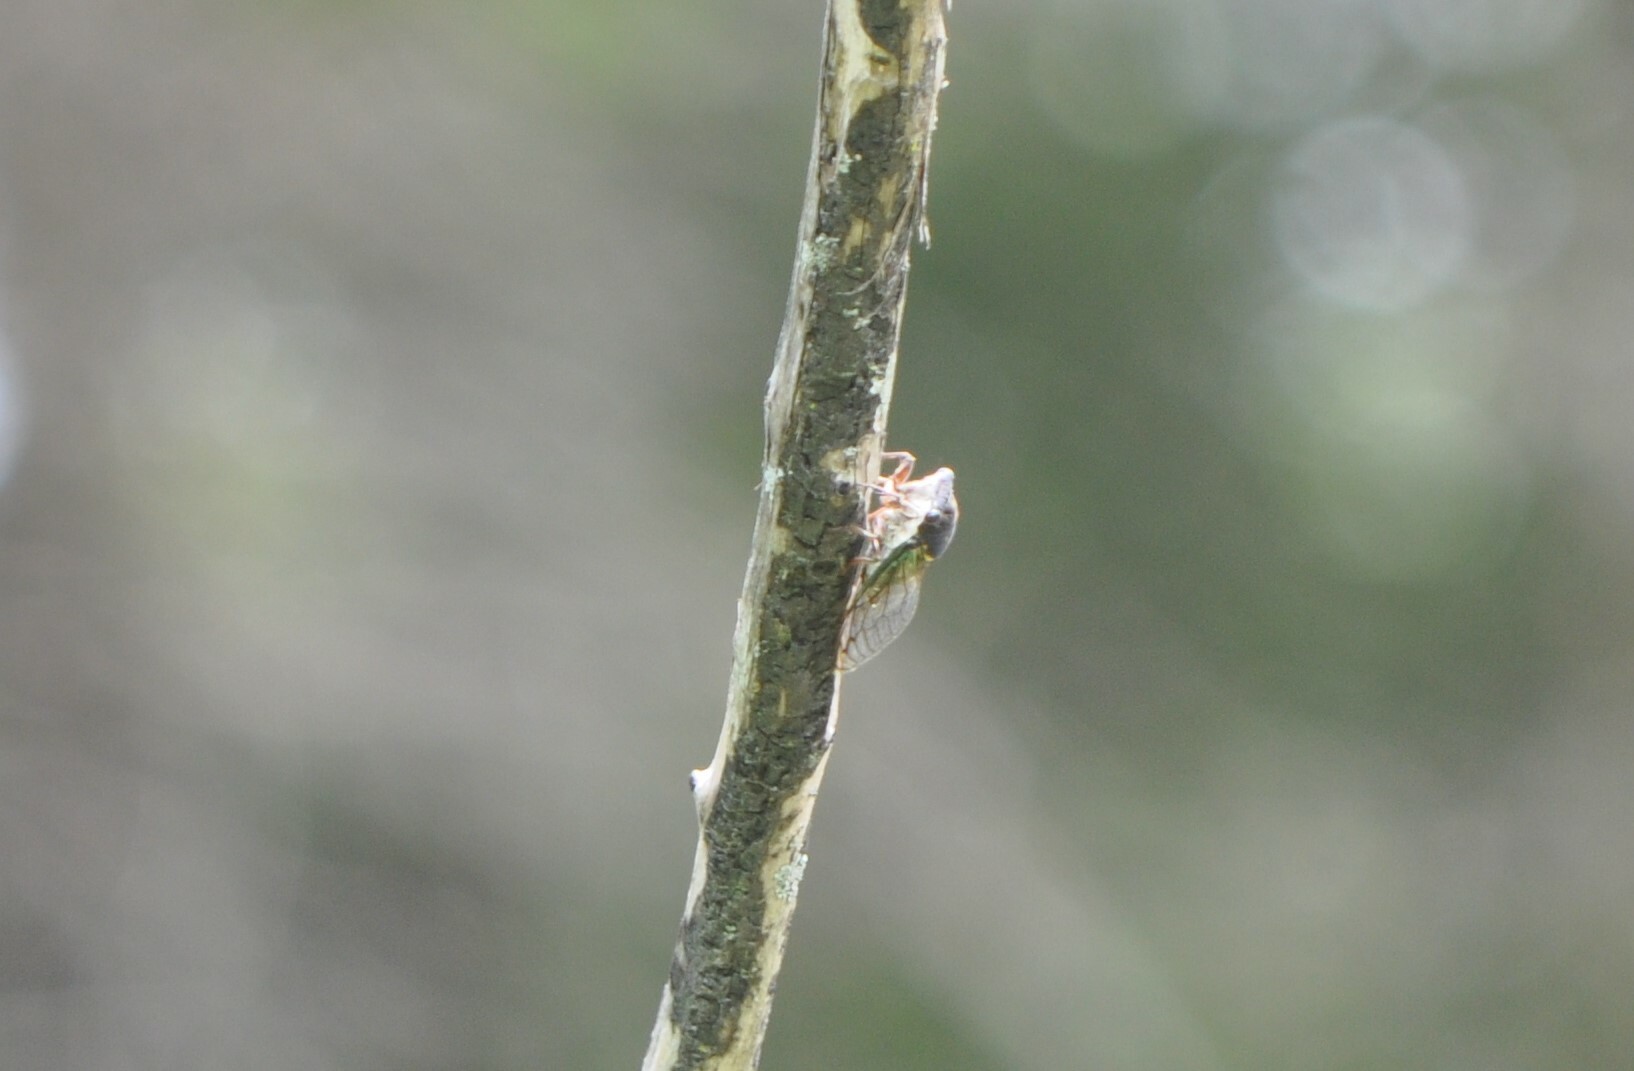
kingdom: Animalia
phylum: Arthropoda
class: Insecta
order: Hemiptera
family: Cicadidae
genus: Neotibicen
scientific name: Neotibicen tibicen
